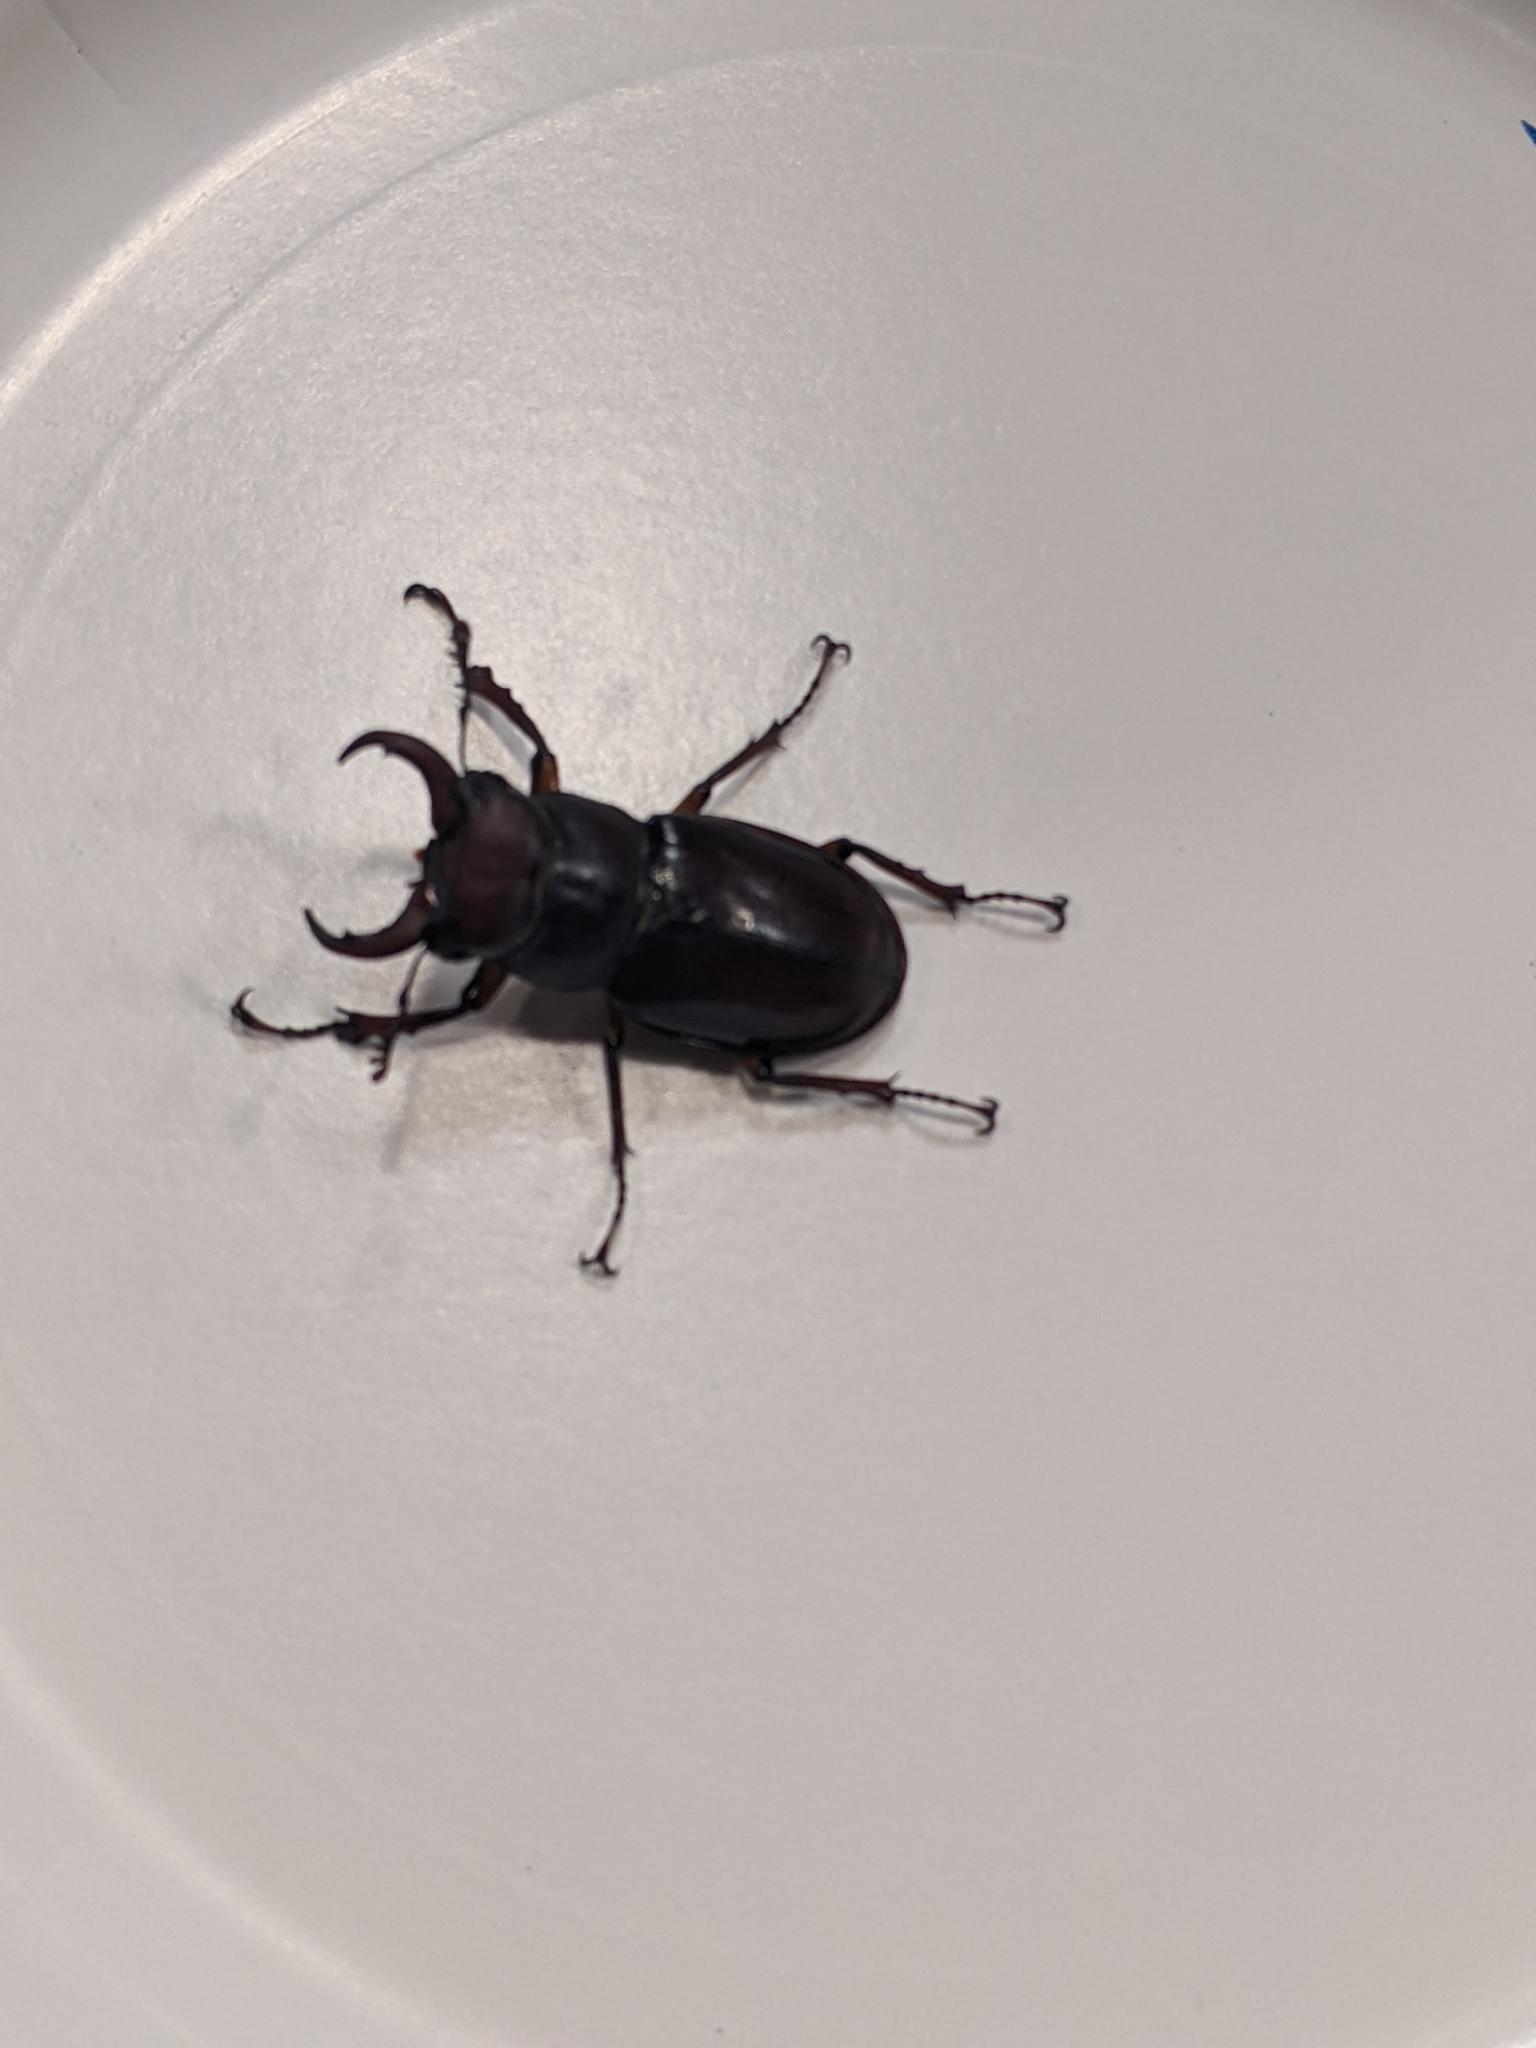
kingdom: Animalia
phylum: Arthropoda
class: Insecta
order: Coleoptera
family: Lucanidae
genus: Lucanus
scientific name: Lucanus capreolus
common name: Stag beetle
